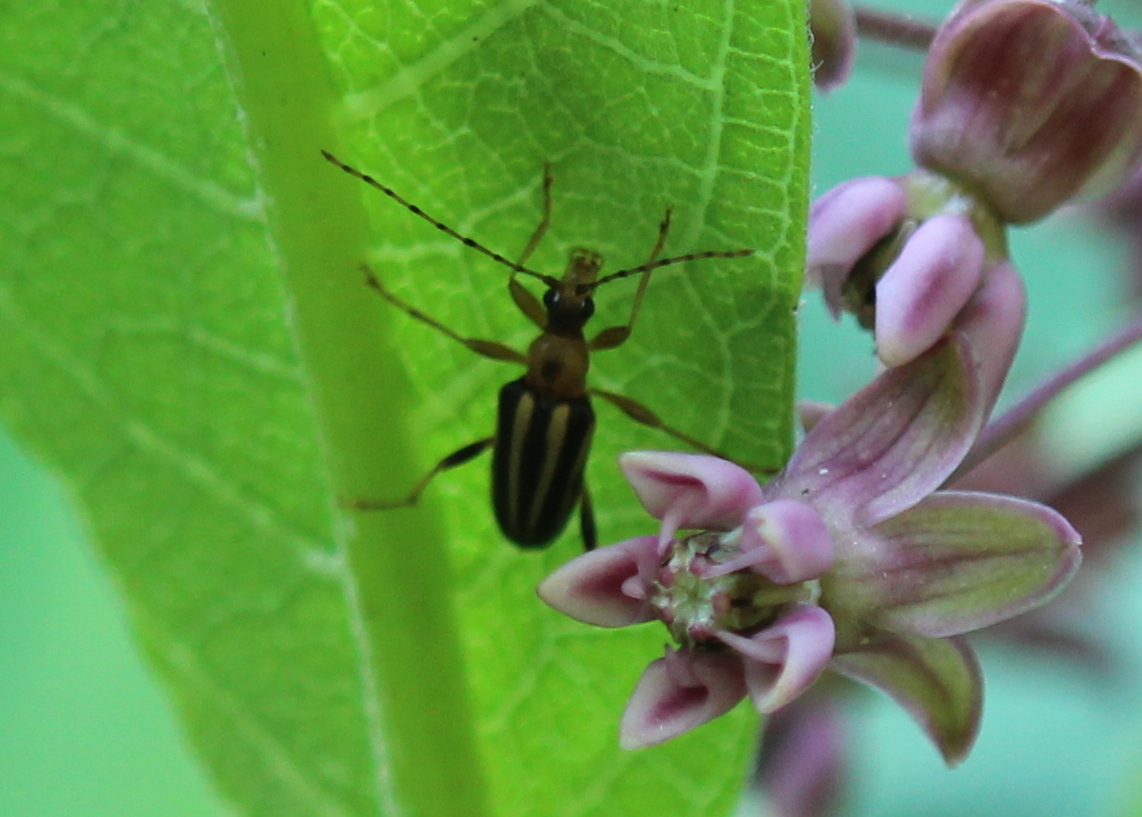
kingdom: Animalia
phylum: Arthropoda
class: Insecta
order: Coleoptera
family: Cerambycidae
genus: Metacmaeops
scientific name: Metacmaeops vittata
